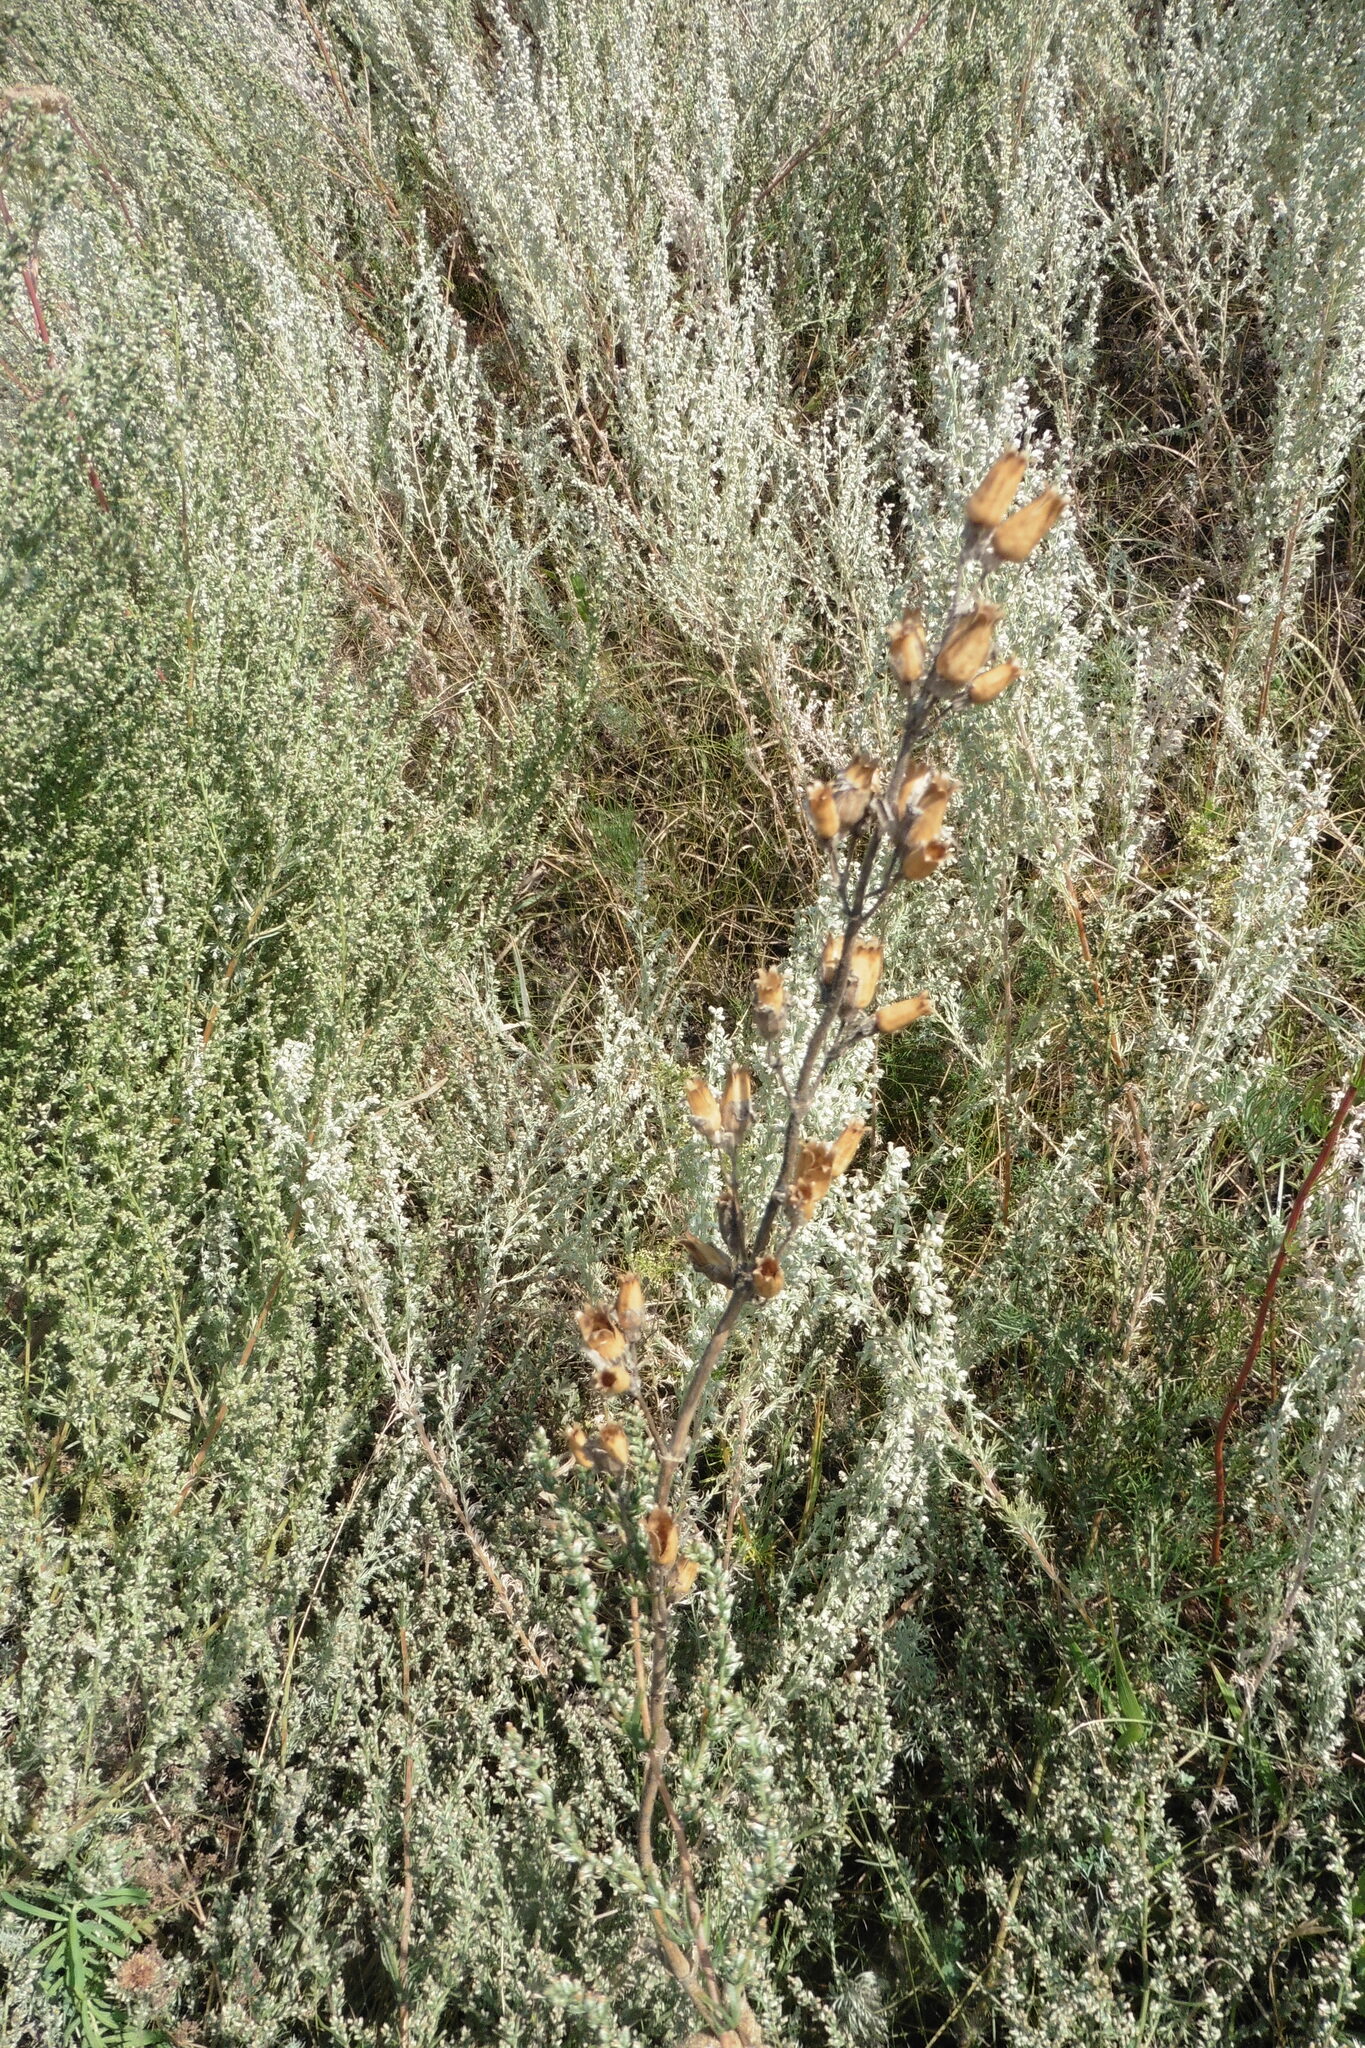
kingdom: Plantae
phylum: Tracheophyta
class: Magnoliopsida
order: Caryophyllales
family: Caryophyllaceae
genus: Silene
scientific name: Silene viscosa
